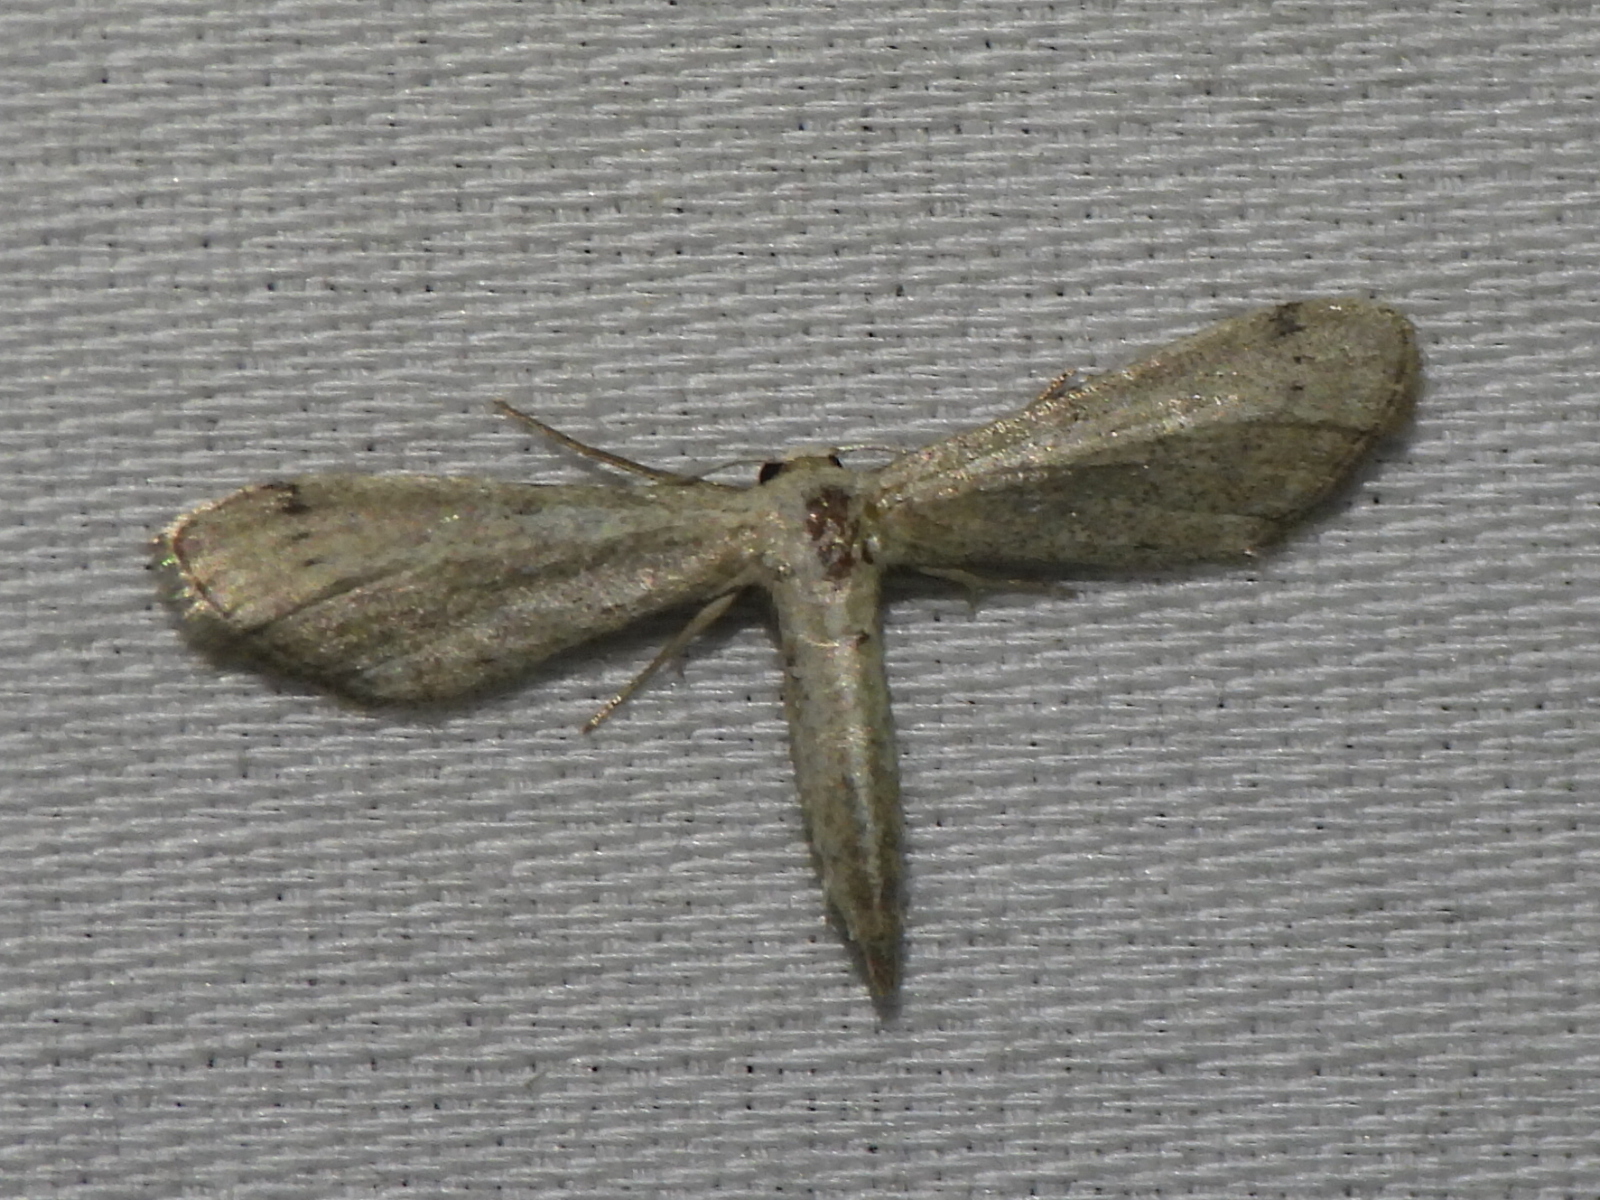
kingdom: Animalia
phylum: Arthropoda
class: Insecta
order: Lepidoptera
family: Geometridae
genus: Euacidalia
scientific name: Euacidalia brownsvillea
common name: Cankerworm
